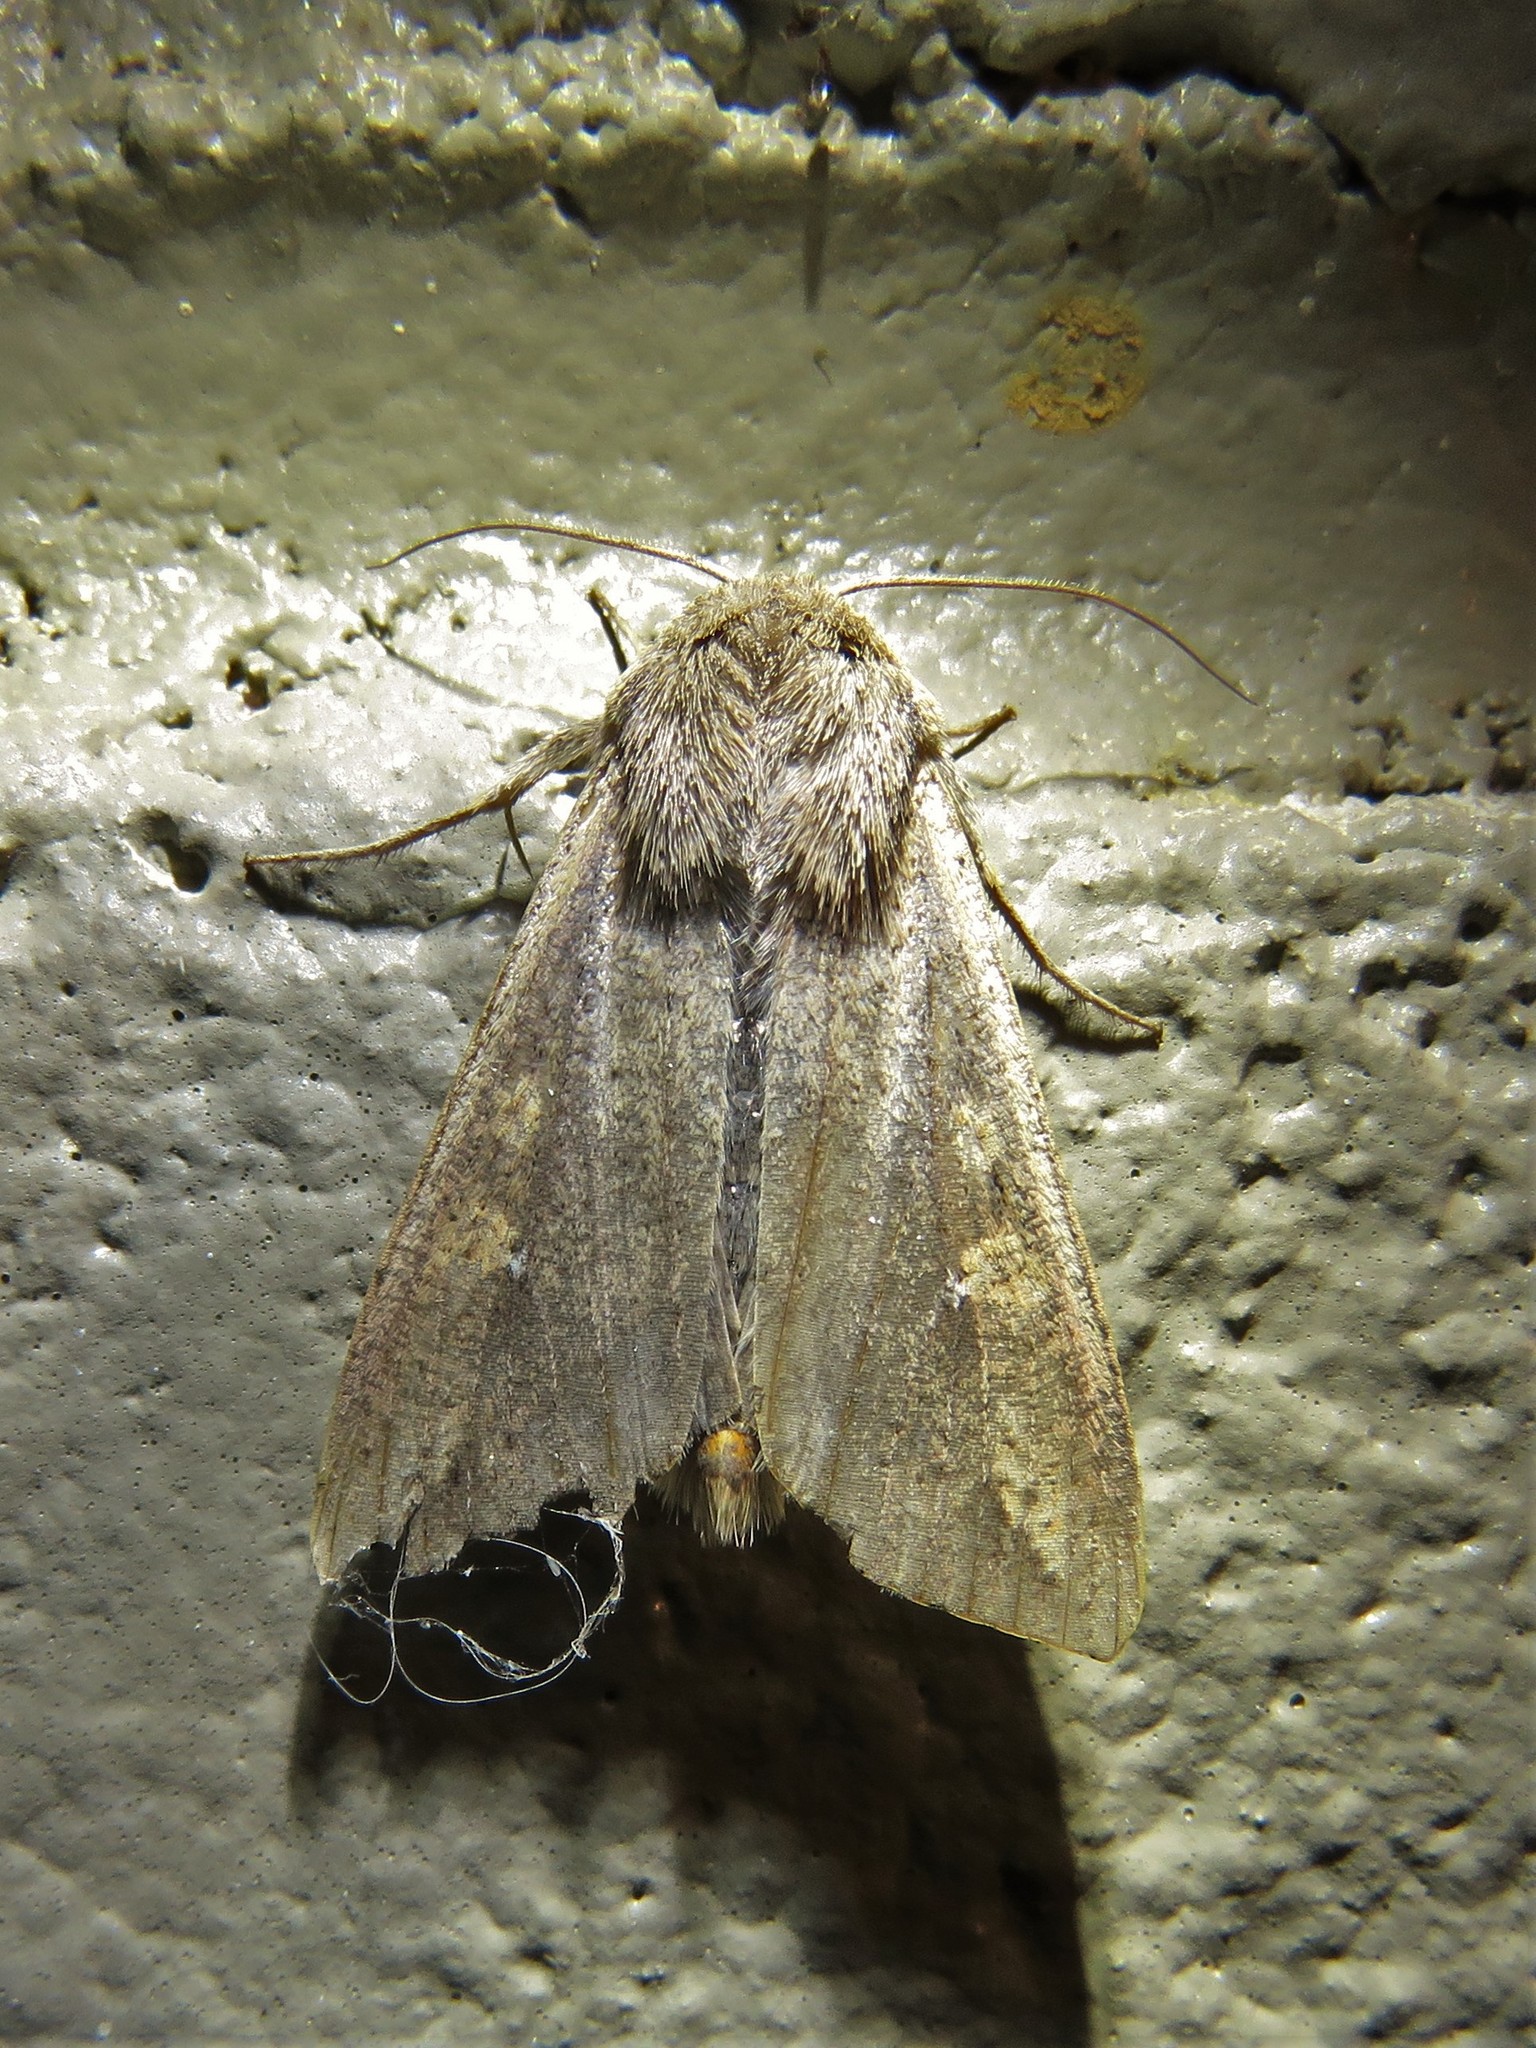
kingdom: Animalia
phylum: Arthropoda
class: Insecta
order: Lepidoptera
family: Noctuidae
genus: Mythimna
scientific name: Mythimna unipuncta
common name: White-speck
